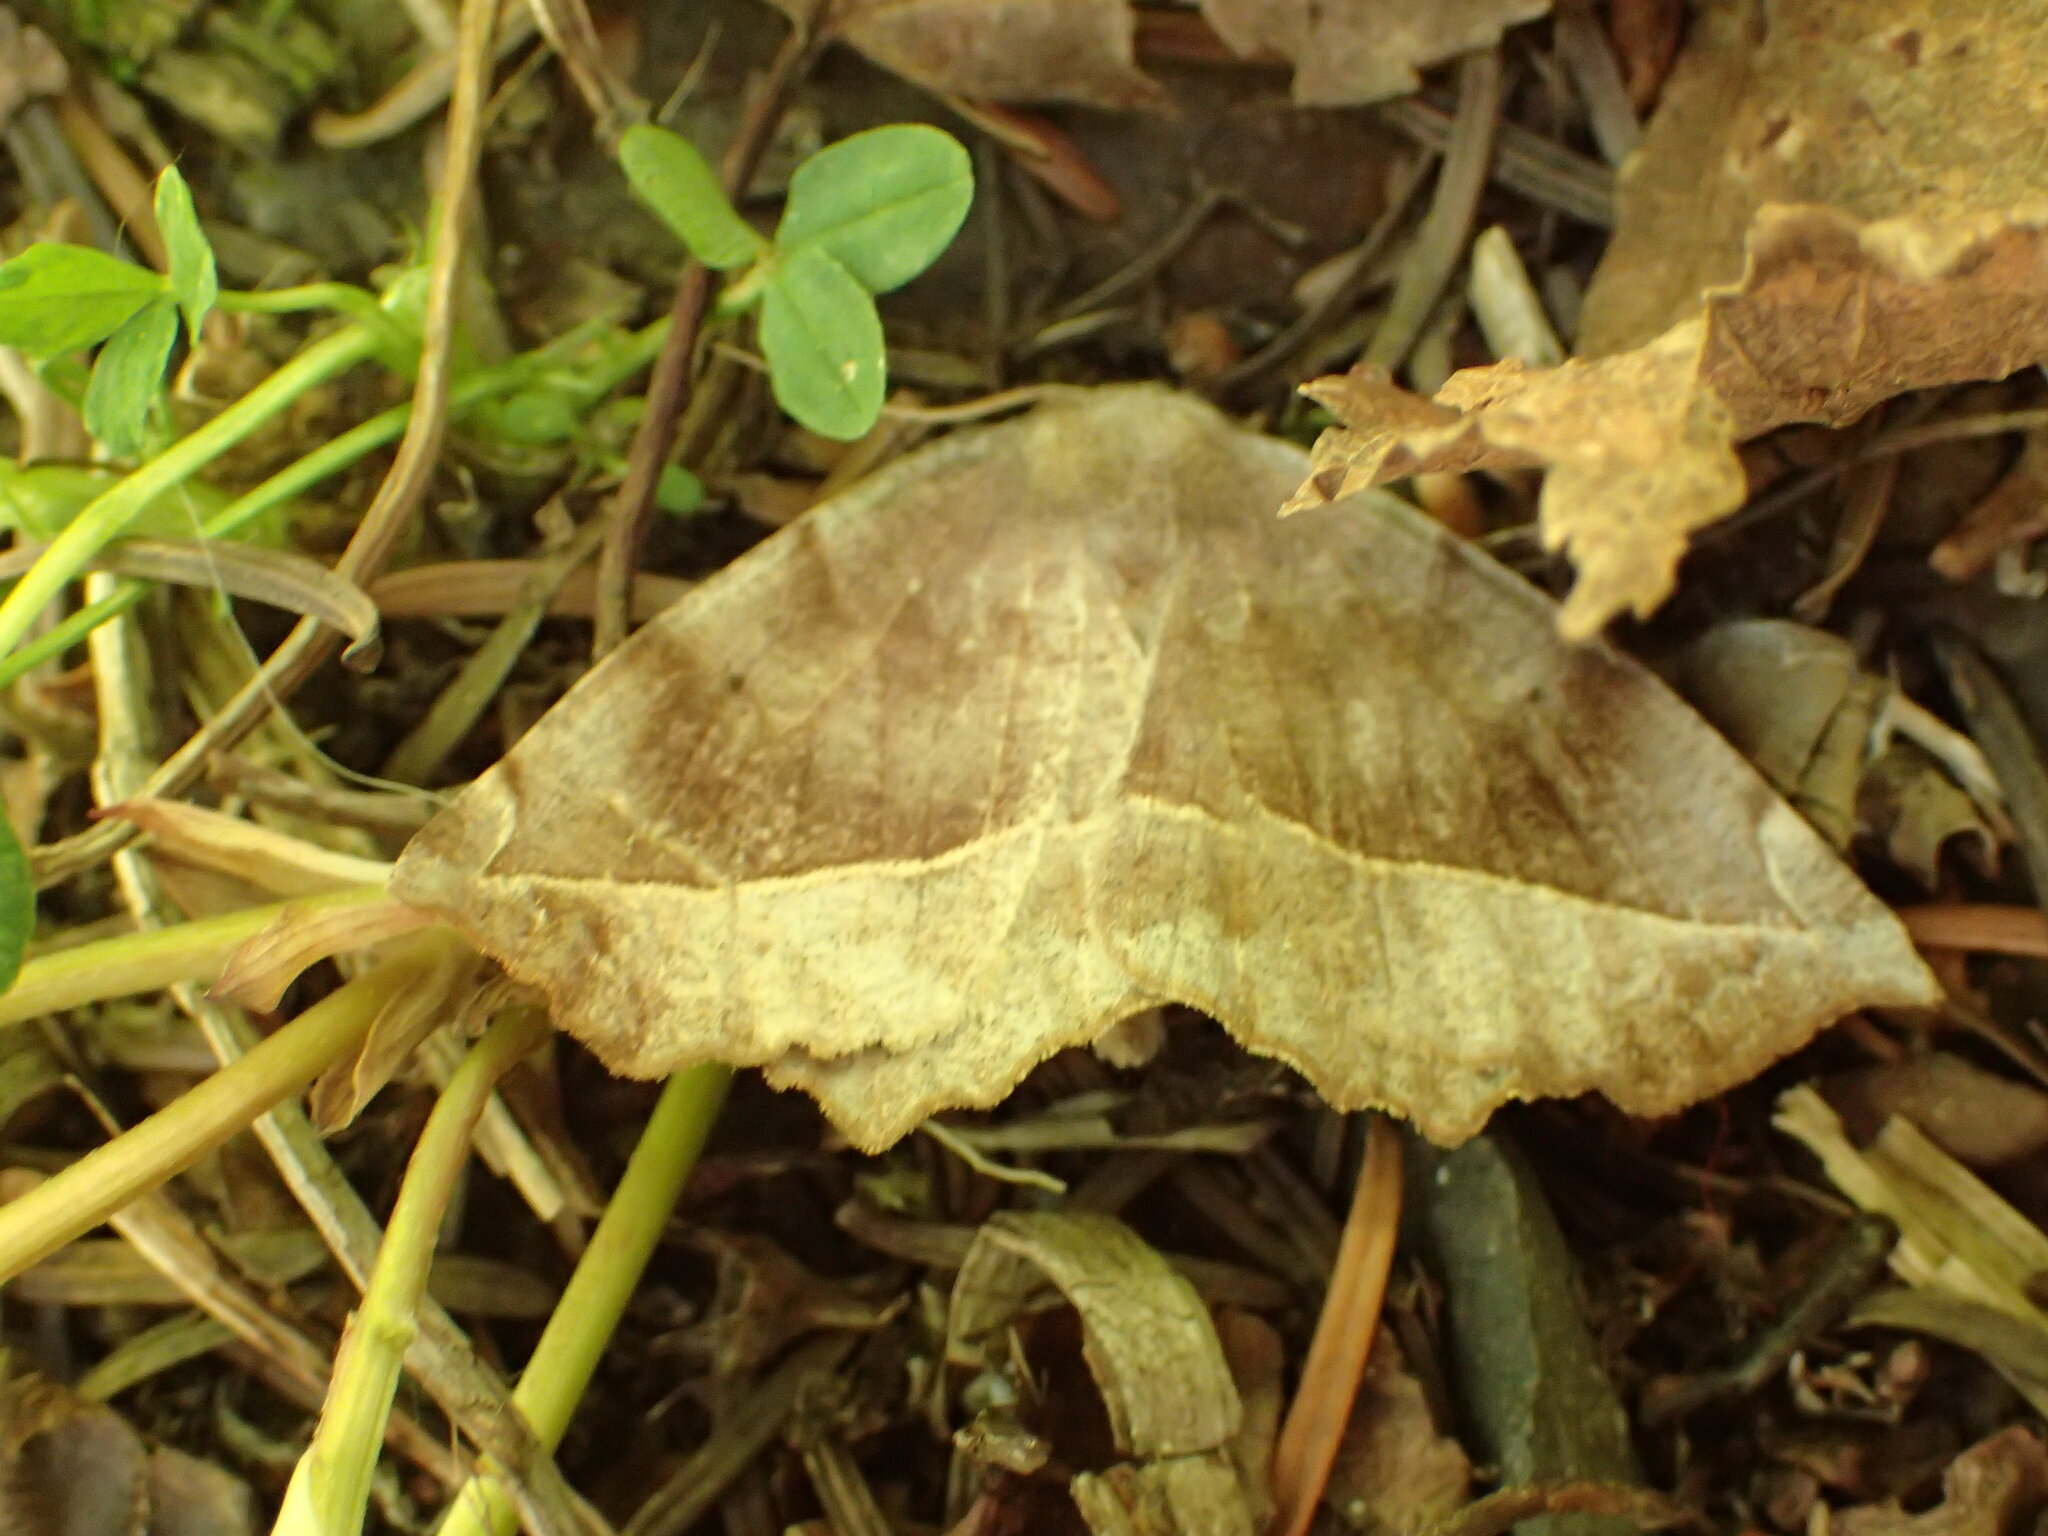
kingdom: Animalia
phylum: Arthropoda
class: Insecta
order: Lepidoptera
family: Geometridae
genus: Eutrapela
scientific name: Eutrapela clemataria
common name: Curved-toothed geometer
